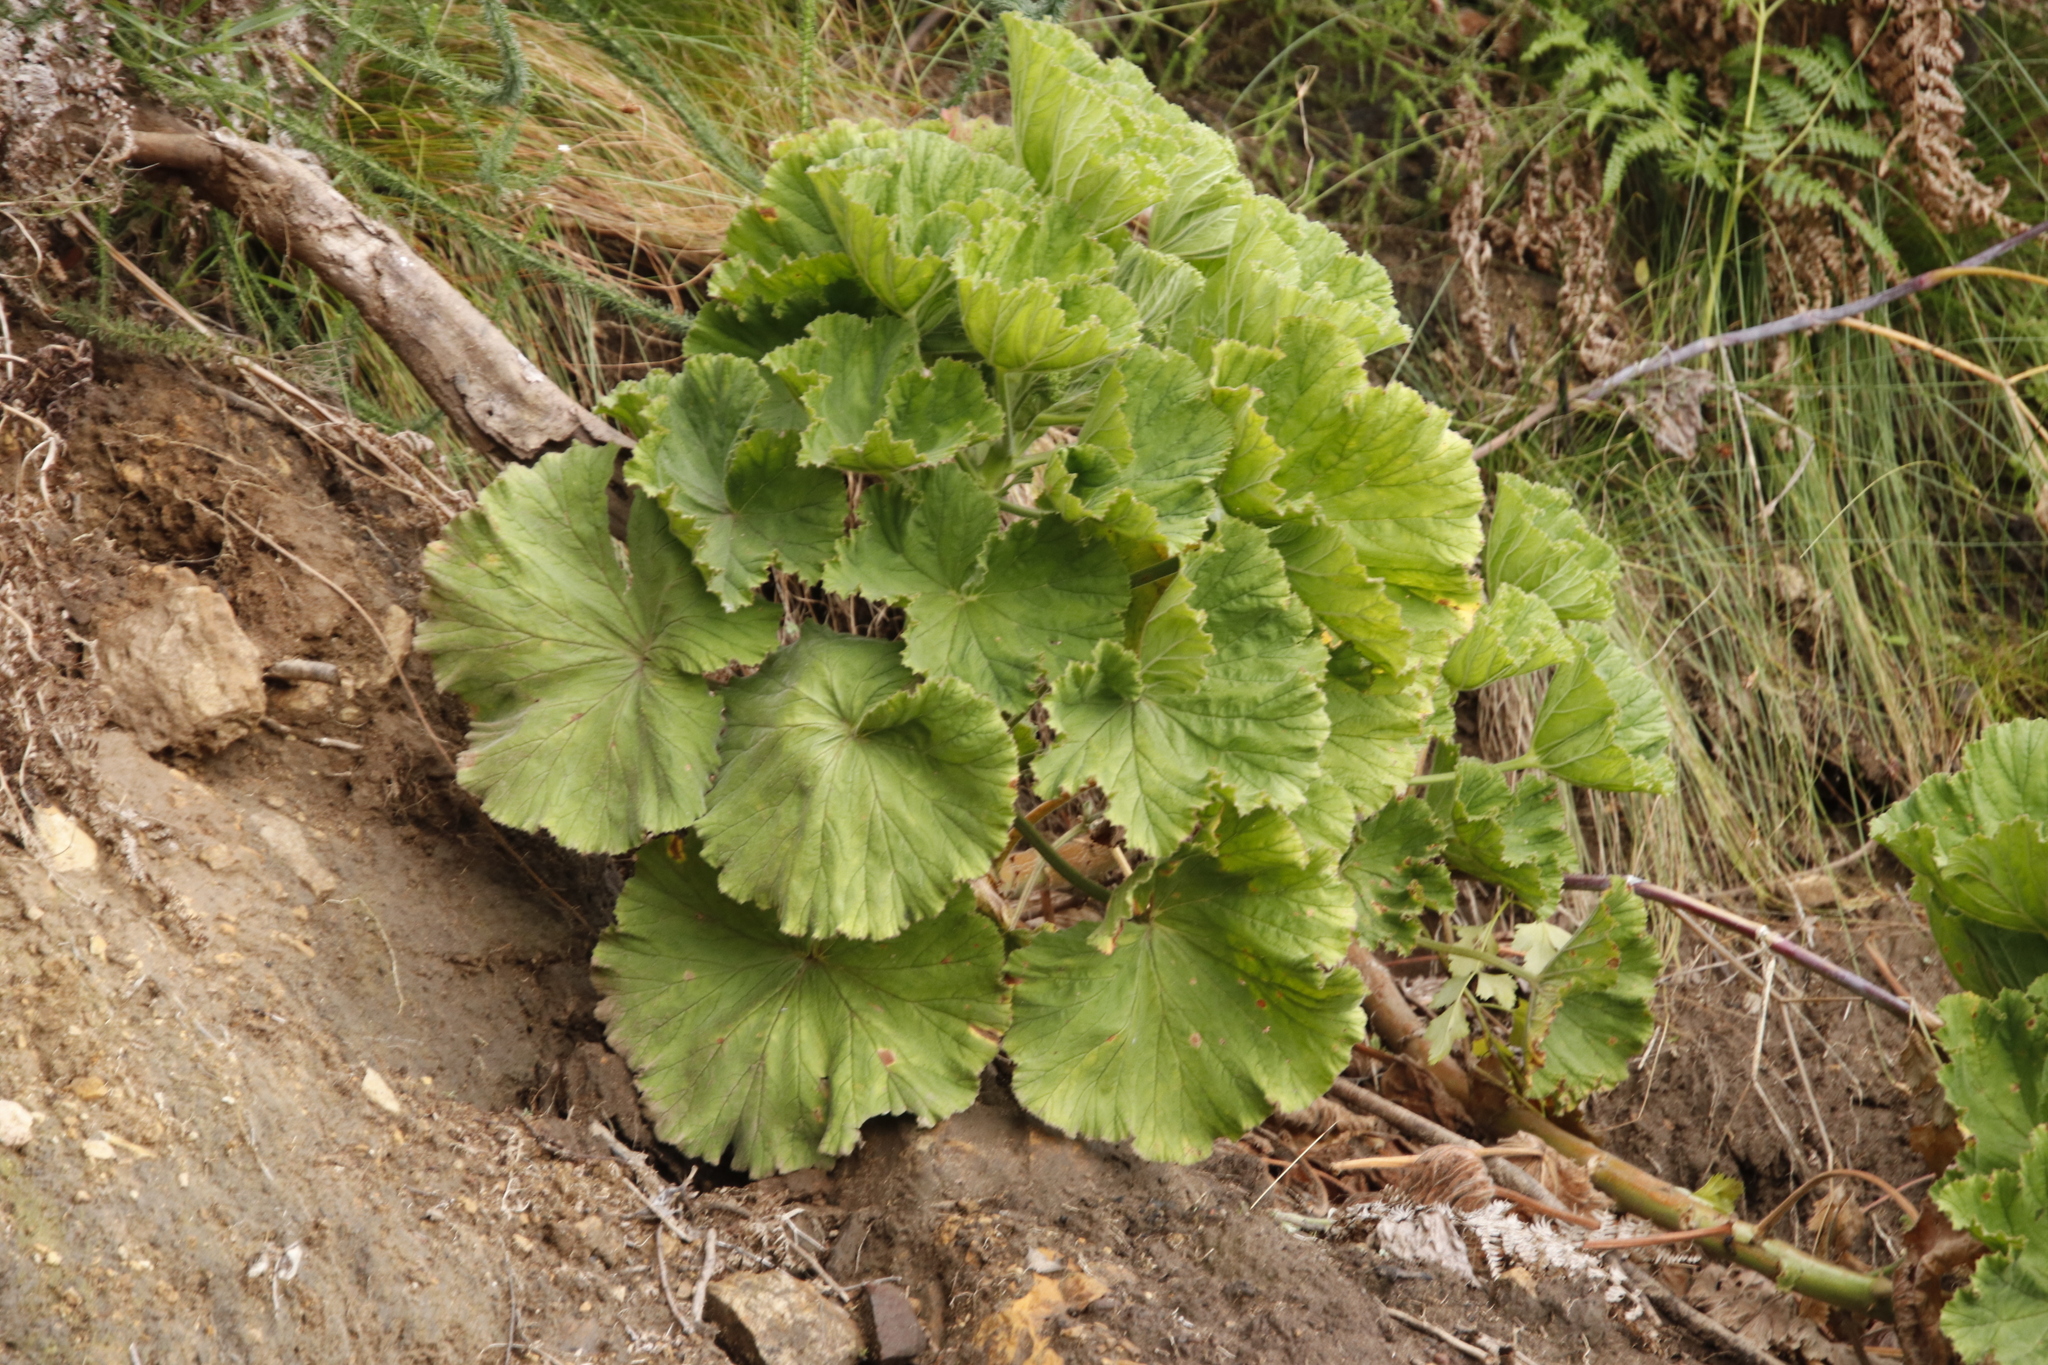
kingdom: Plantae
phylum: Tracheophyta
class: Magnoliopsida
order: Geraniales
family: Geraniaceae
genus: Pelargonium
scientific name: Pelargonium cucullatum
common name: Tree pelargonium
